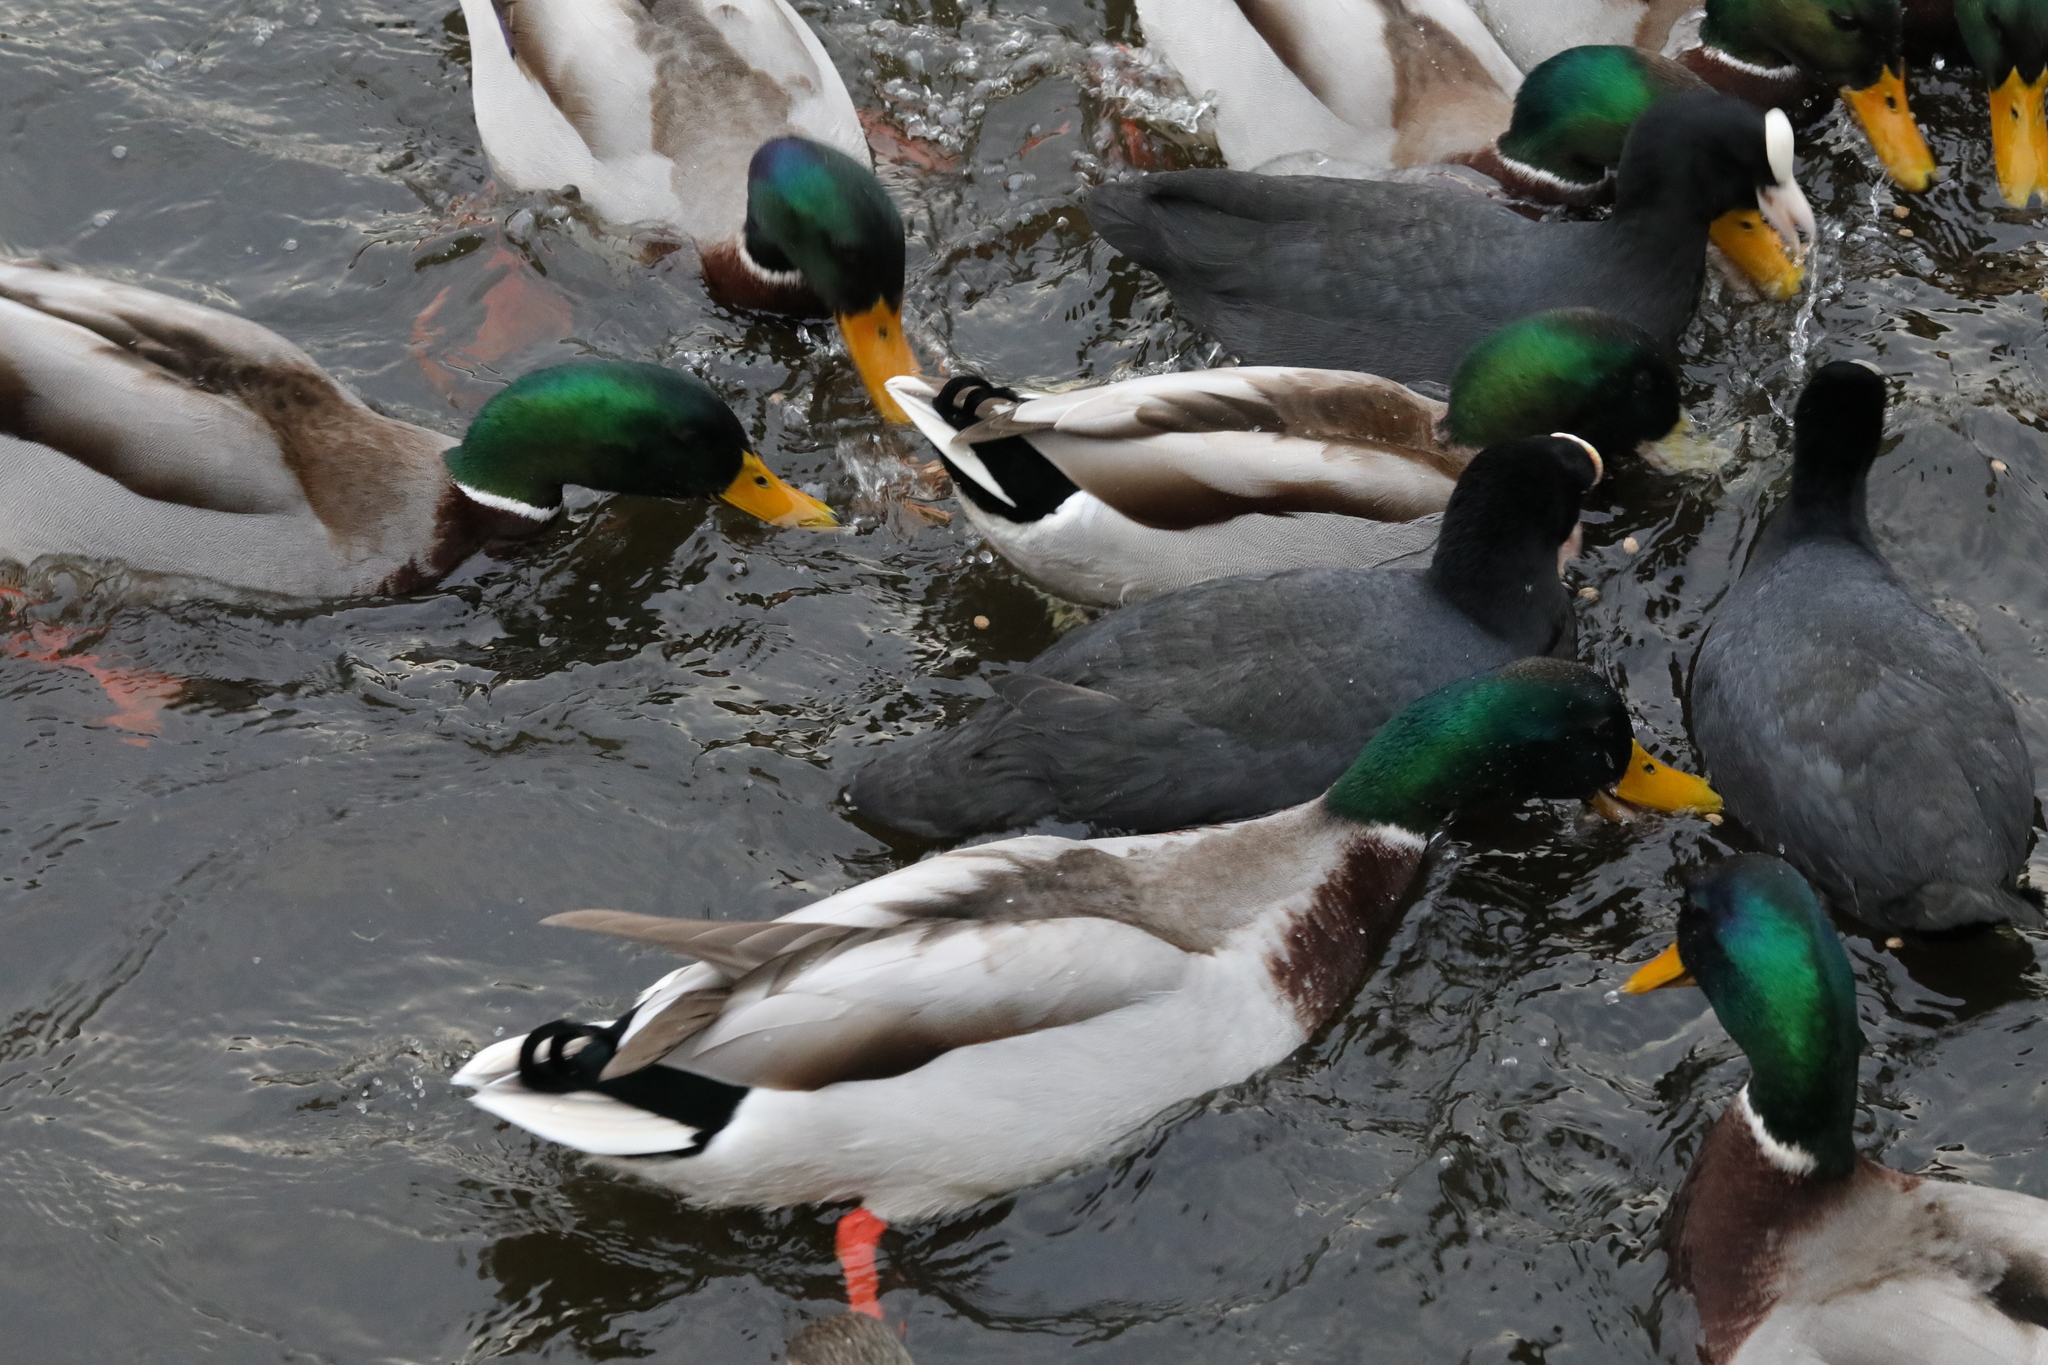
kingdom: Animalia
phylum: Chordata
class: Aves
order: Gruiformes
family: Rallidae
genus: Fulica
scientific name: Fulica atra
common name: Eurasian coot
